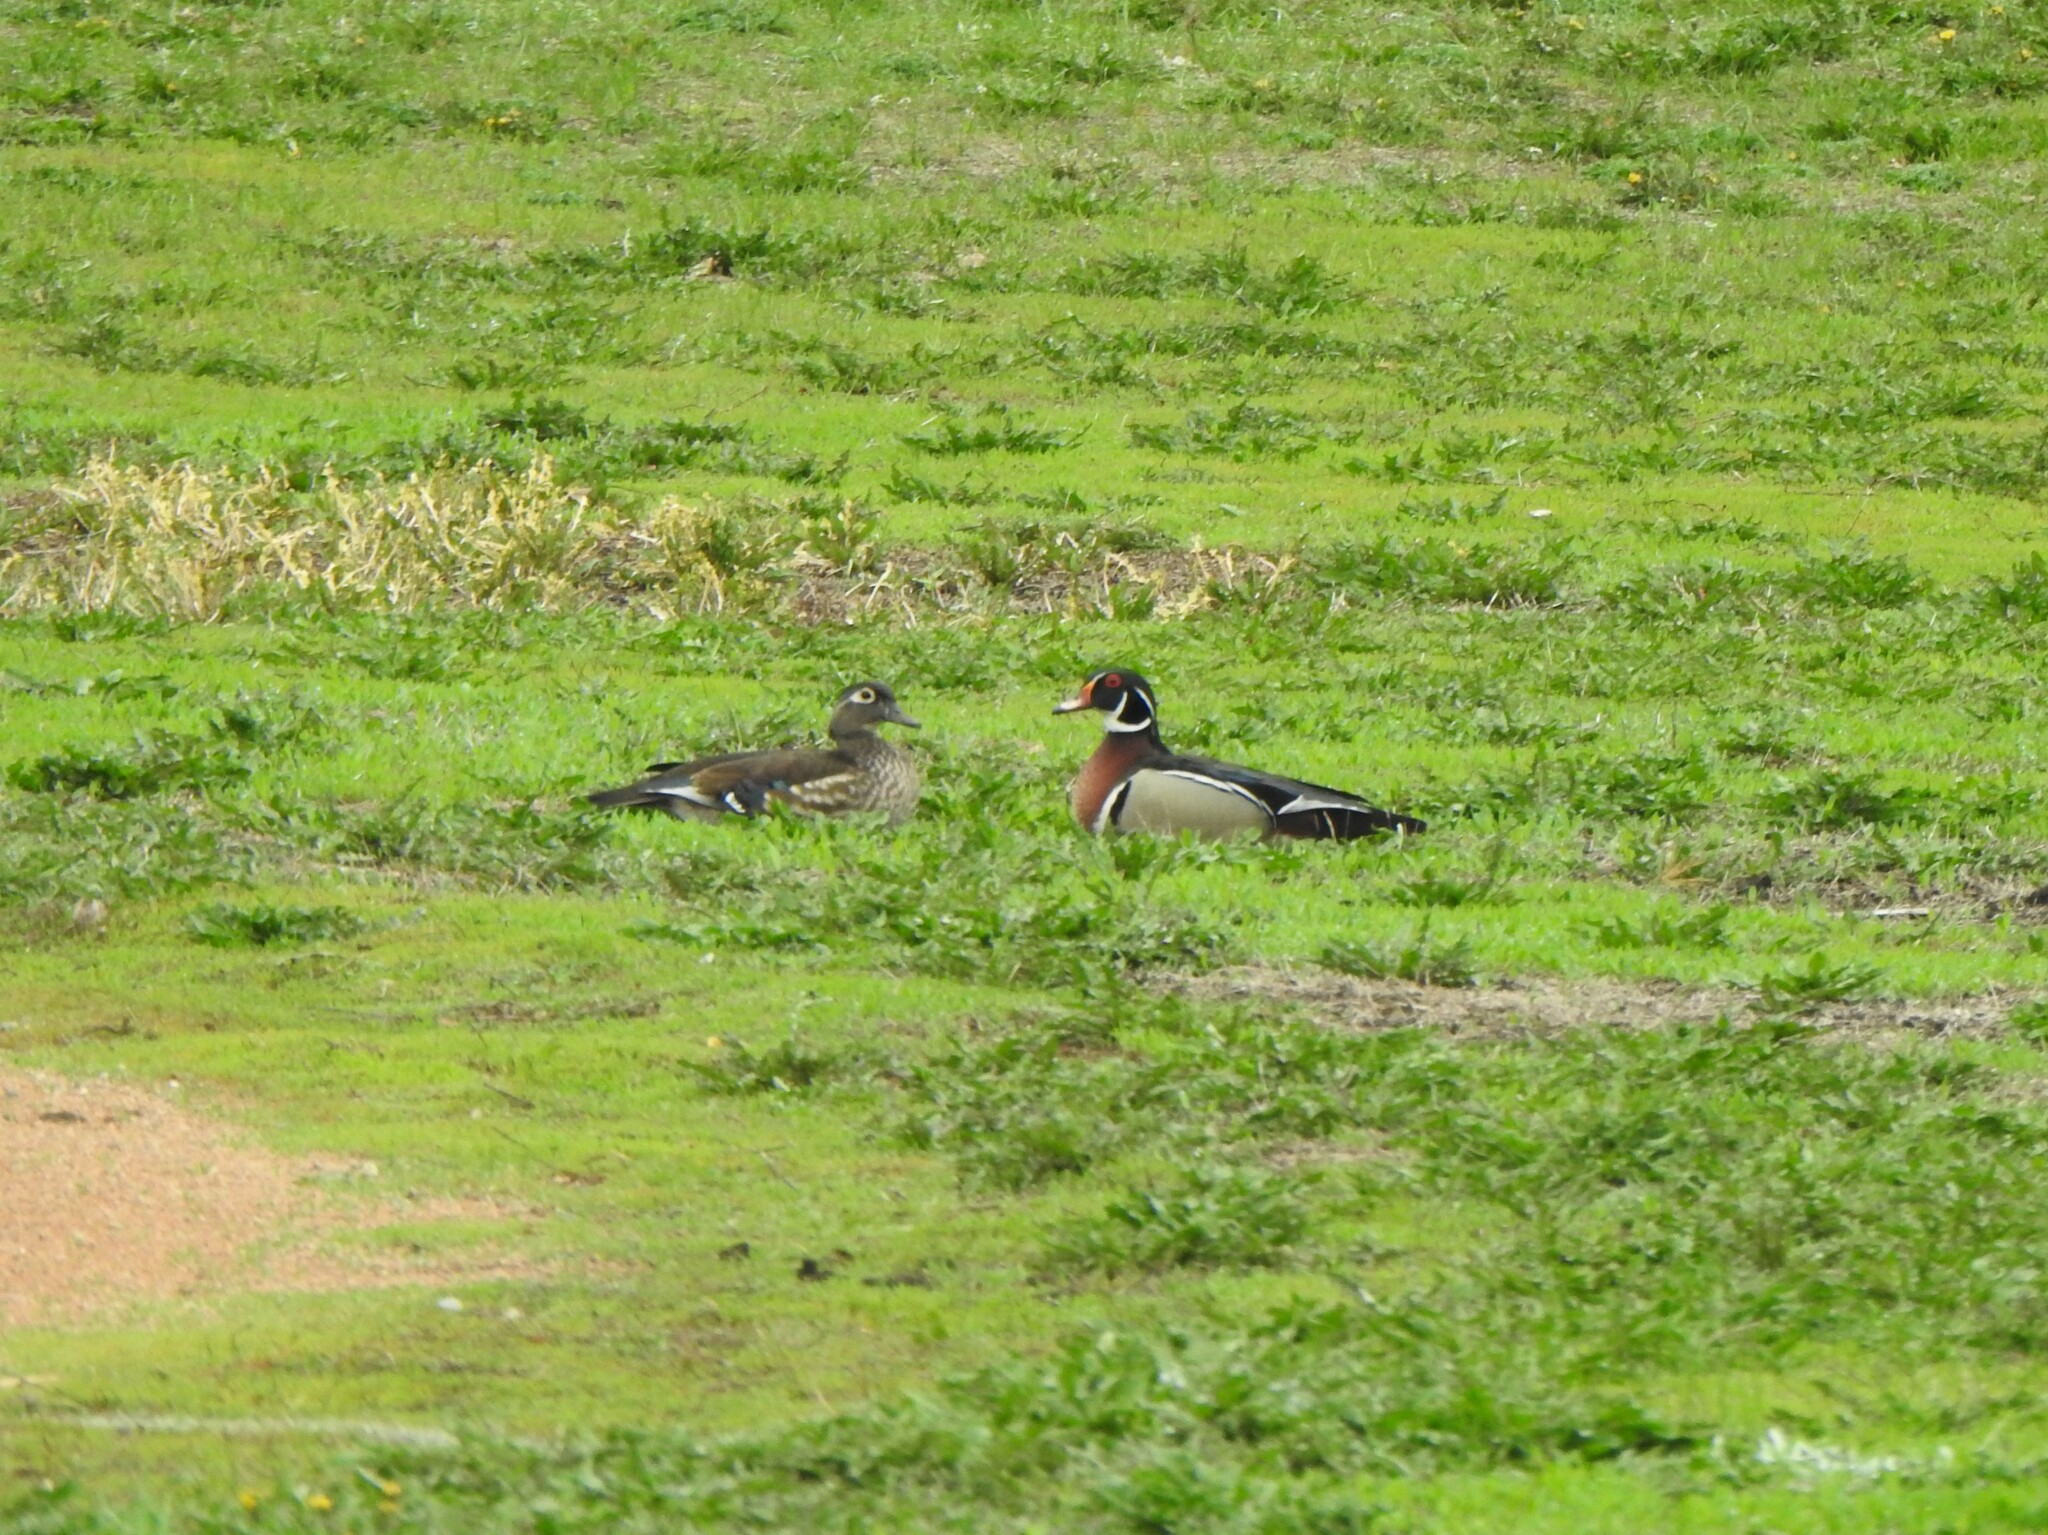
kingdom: Animalia
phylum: Chordata
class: Aves
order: Anseriformes
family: Anatidae
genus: Aix
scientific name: Aix sponsa
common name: Wood duck
